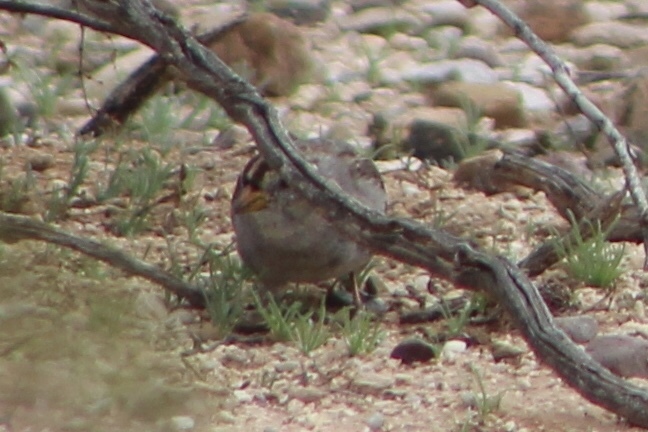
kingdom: Animalia
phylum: Chordata
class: Aves
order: Passeriformes
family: Passerellidae
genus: Zonotrichia
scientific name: Zonotrichia leucophrys
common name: White-crowned sparrow
